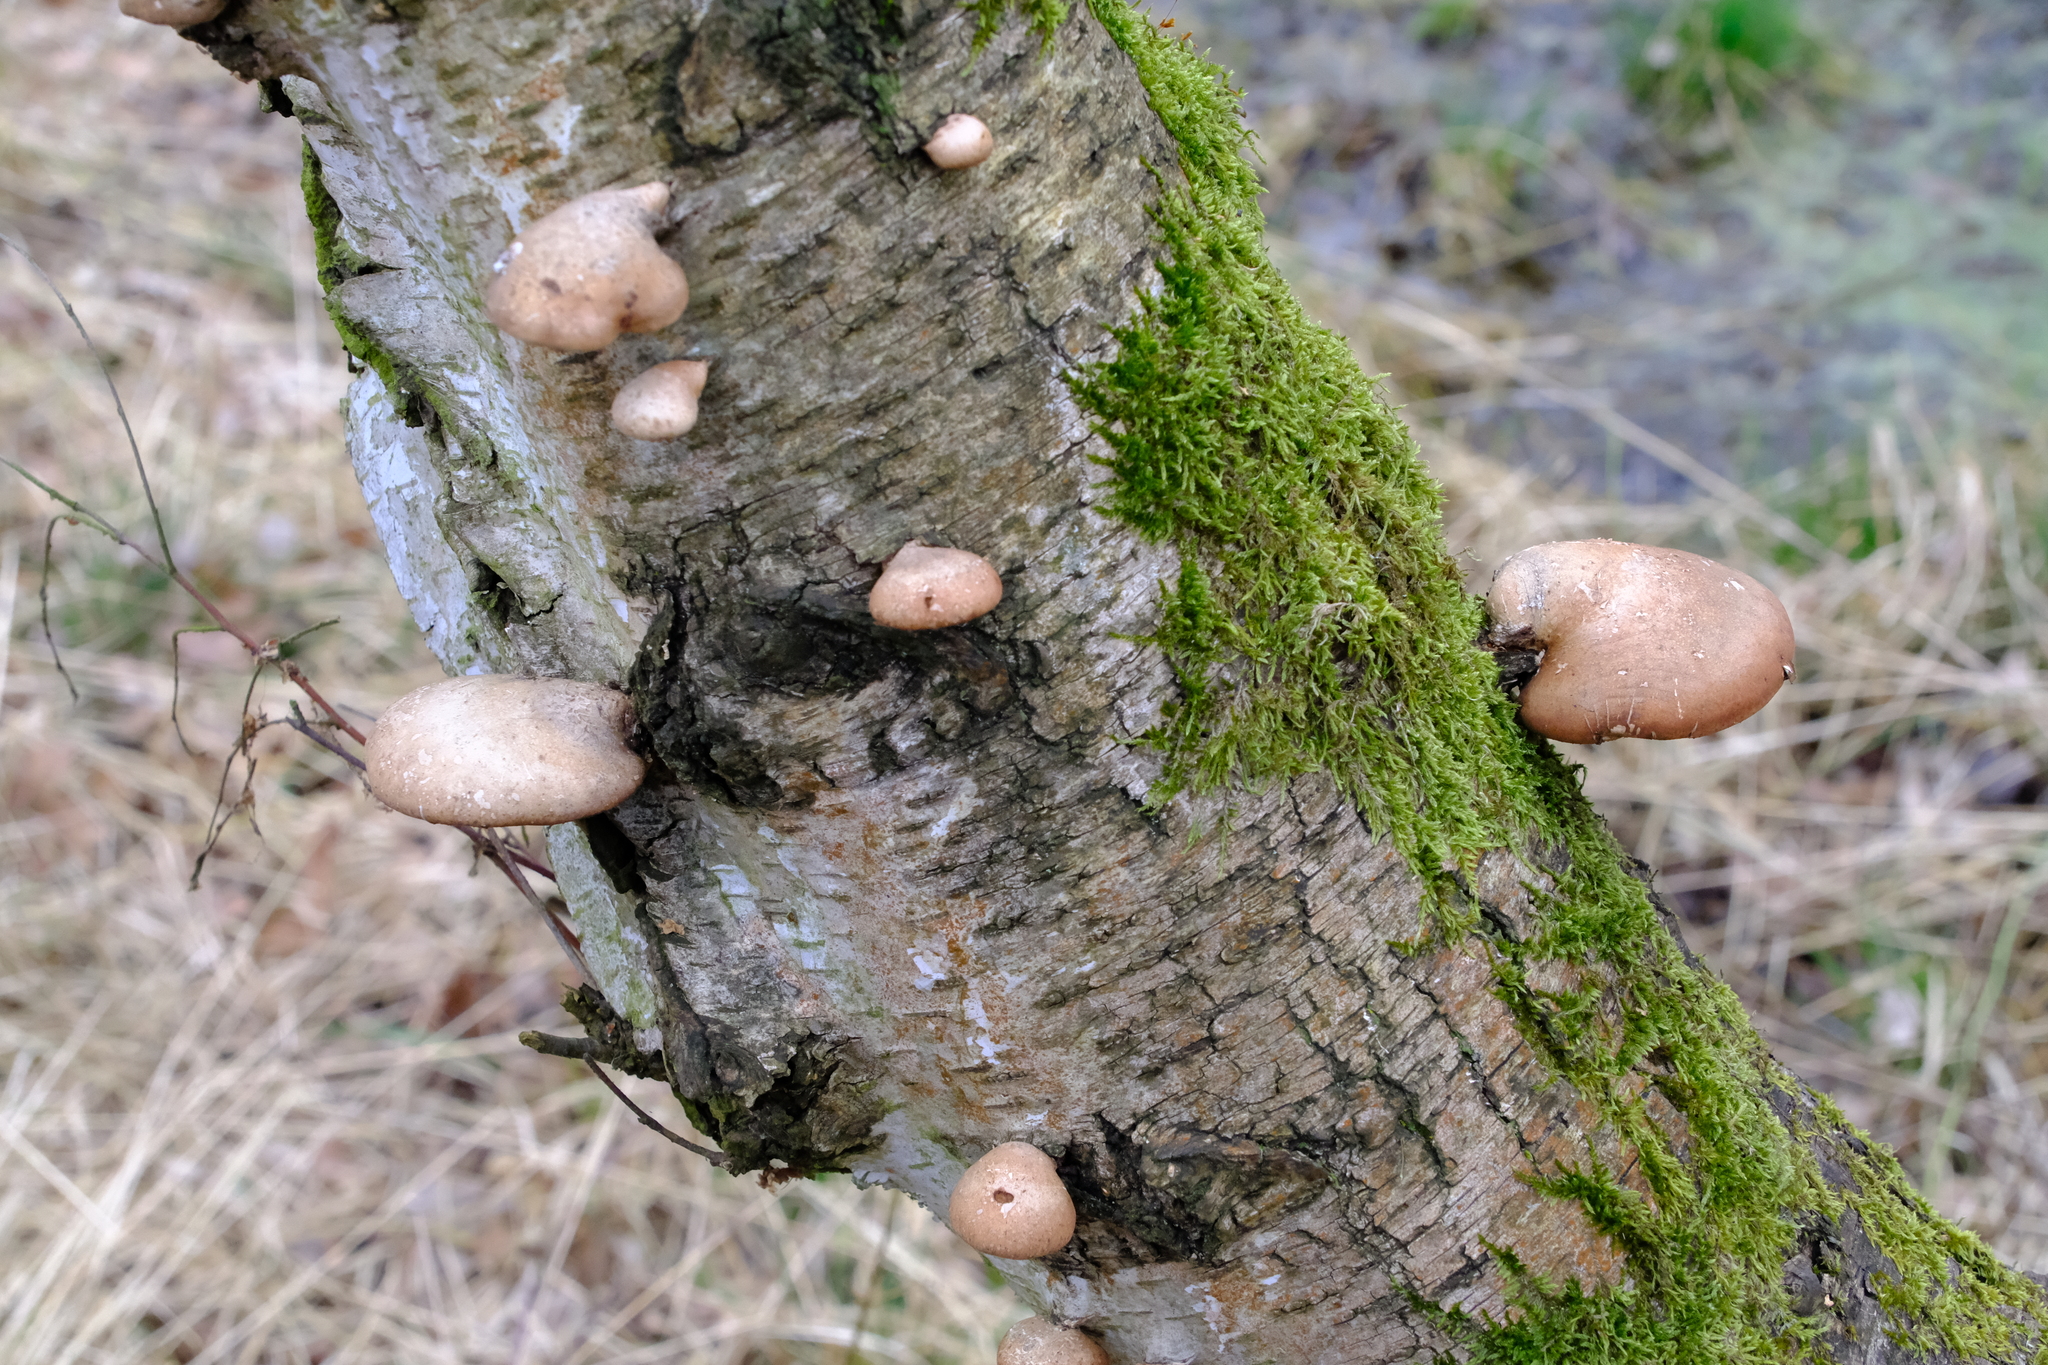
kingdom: Fungi
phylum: Basidiomycota
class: Agaricomycetes
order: Polyporales
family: Fomitopsidaceae
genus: Fomitopsis
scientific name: Fomitopsis betulina
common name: Birch polypore
